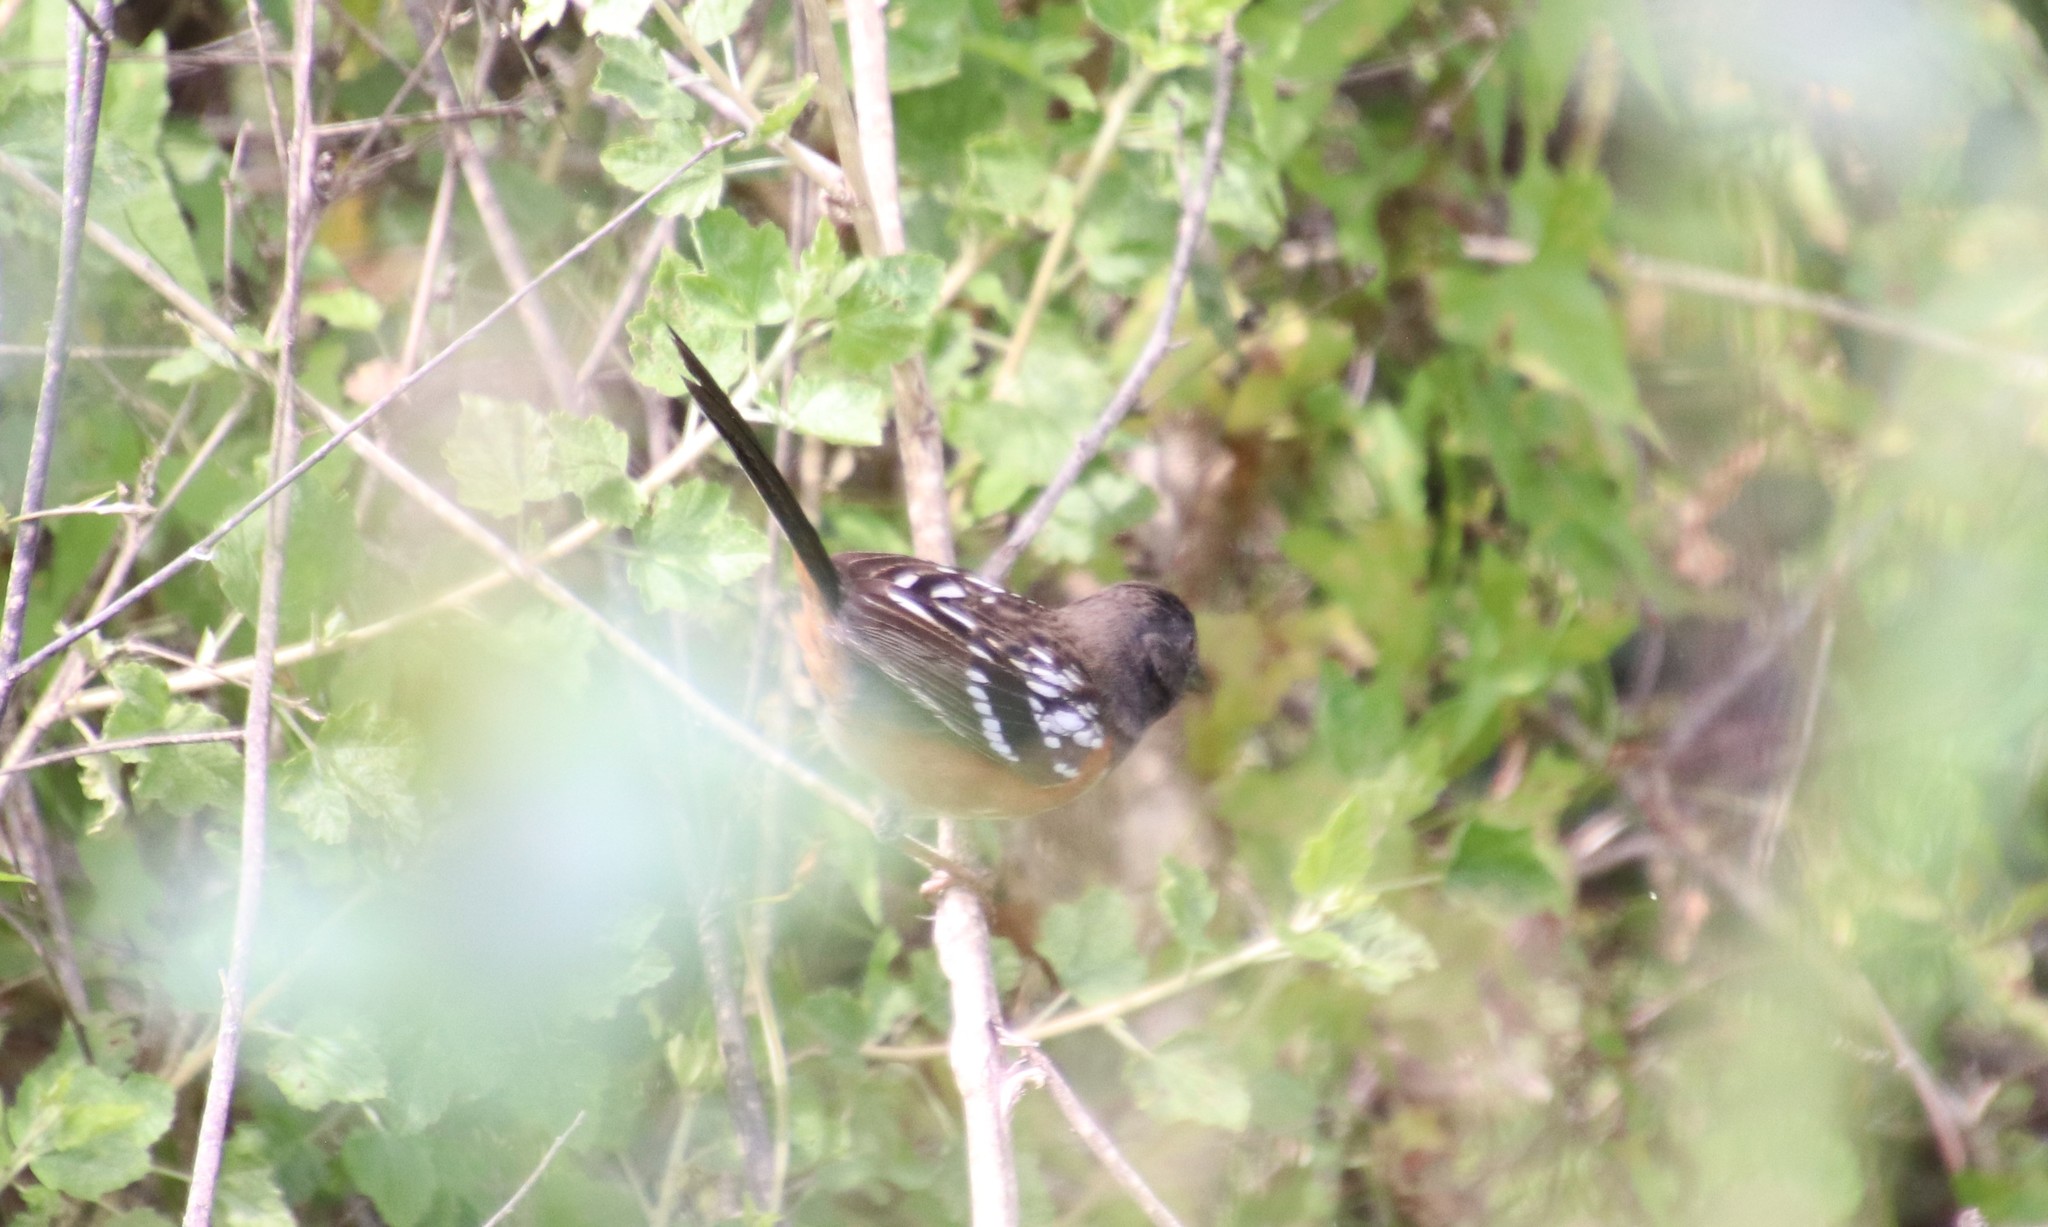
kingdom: Animalia
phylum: Chordata
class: Aves
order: Passeriformes
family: Passerellidae
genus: Pipilo
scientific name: Pipilo maculatus
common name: Spotted towhee
